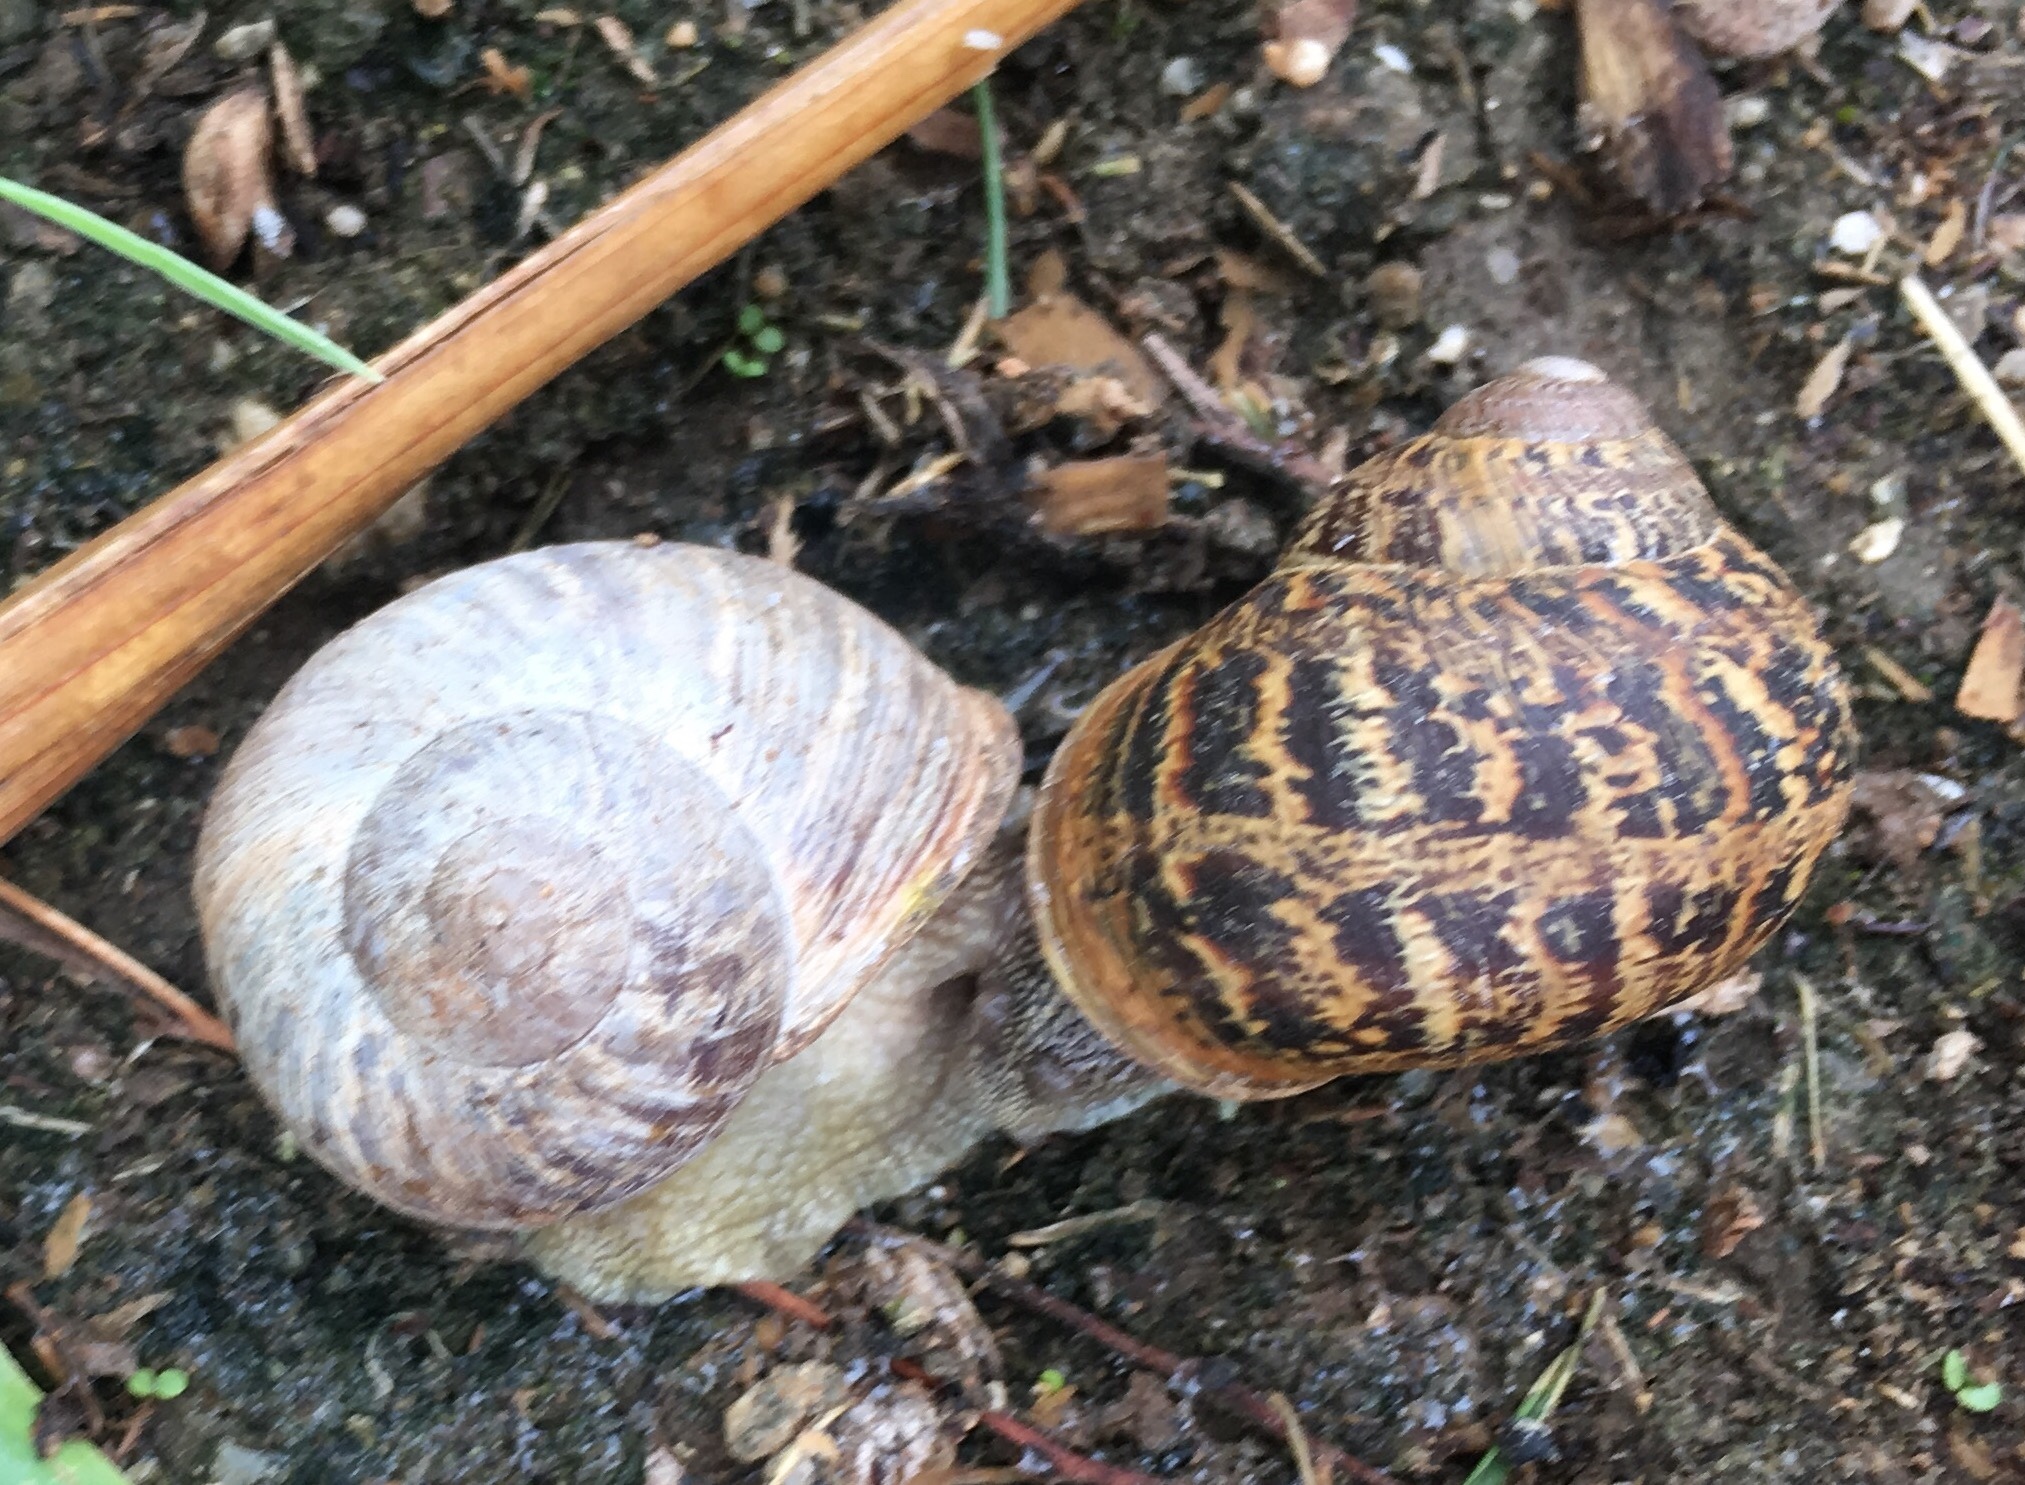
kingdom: Animalia
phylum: Mollusca
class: Gastropoda
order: Stylommatophora
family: Helicidae
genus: Cornu
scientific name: Cornu aspersum
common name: Brown garden snail
